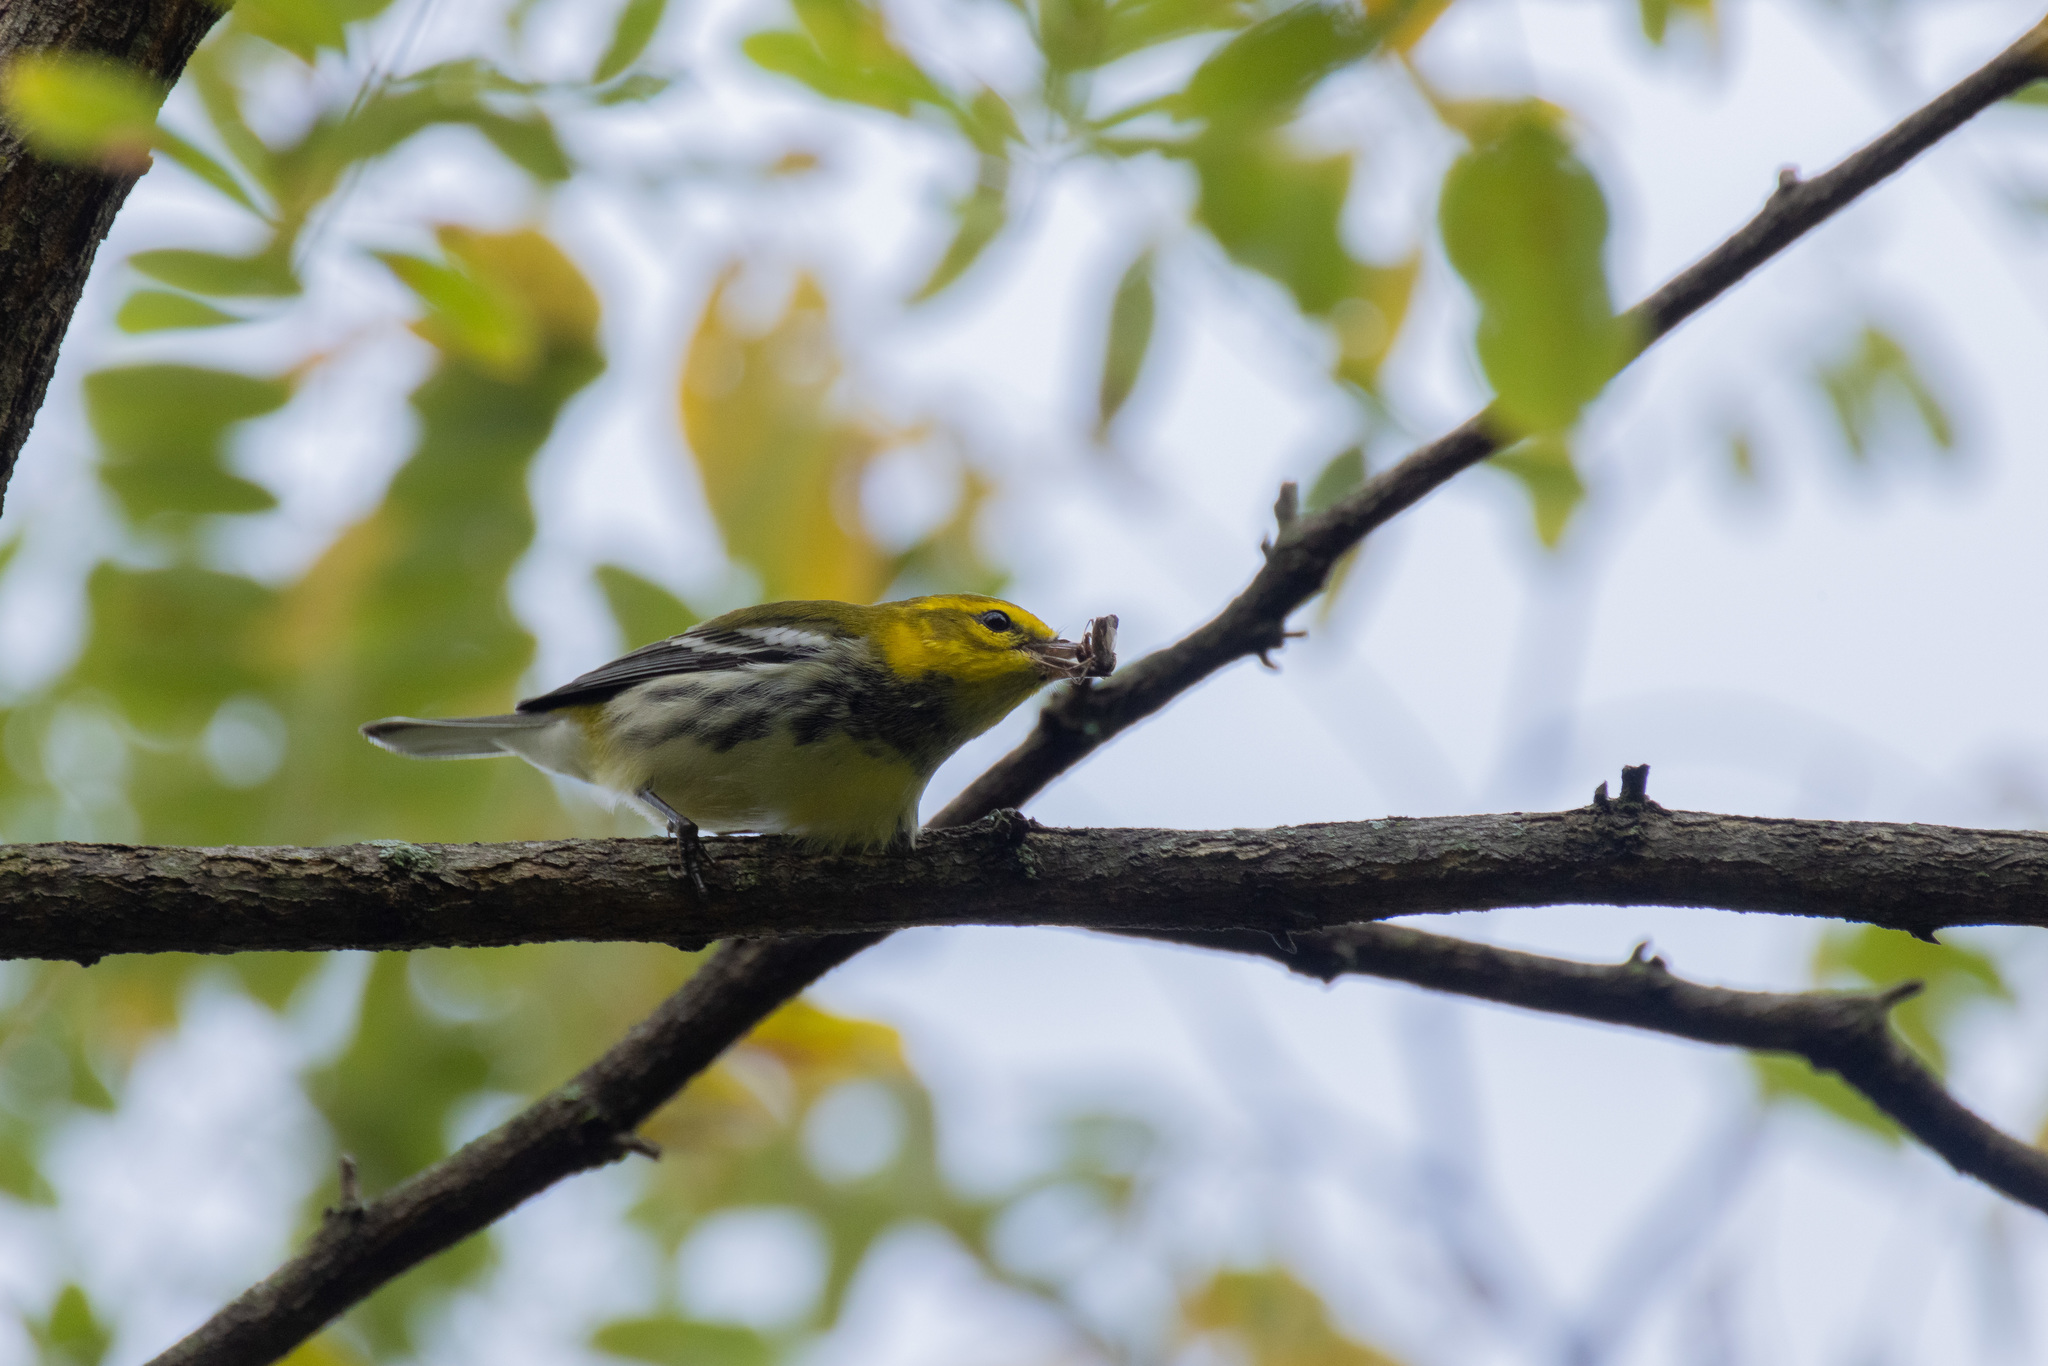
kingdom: Animalia
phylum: Chordata
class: Aves
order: Passeriformes
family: Parulidae
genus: Setophaga
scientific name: Setophaga virens
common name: Black-throated green warbler
